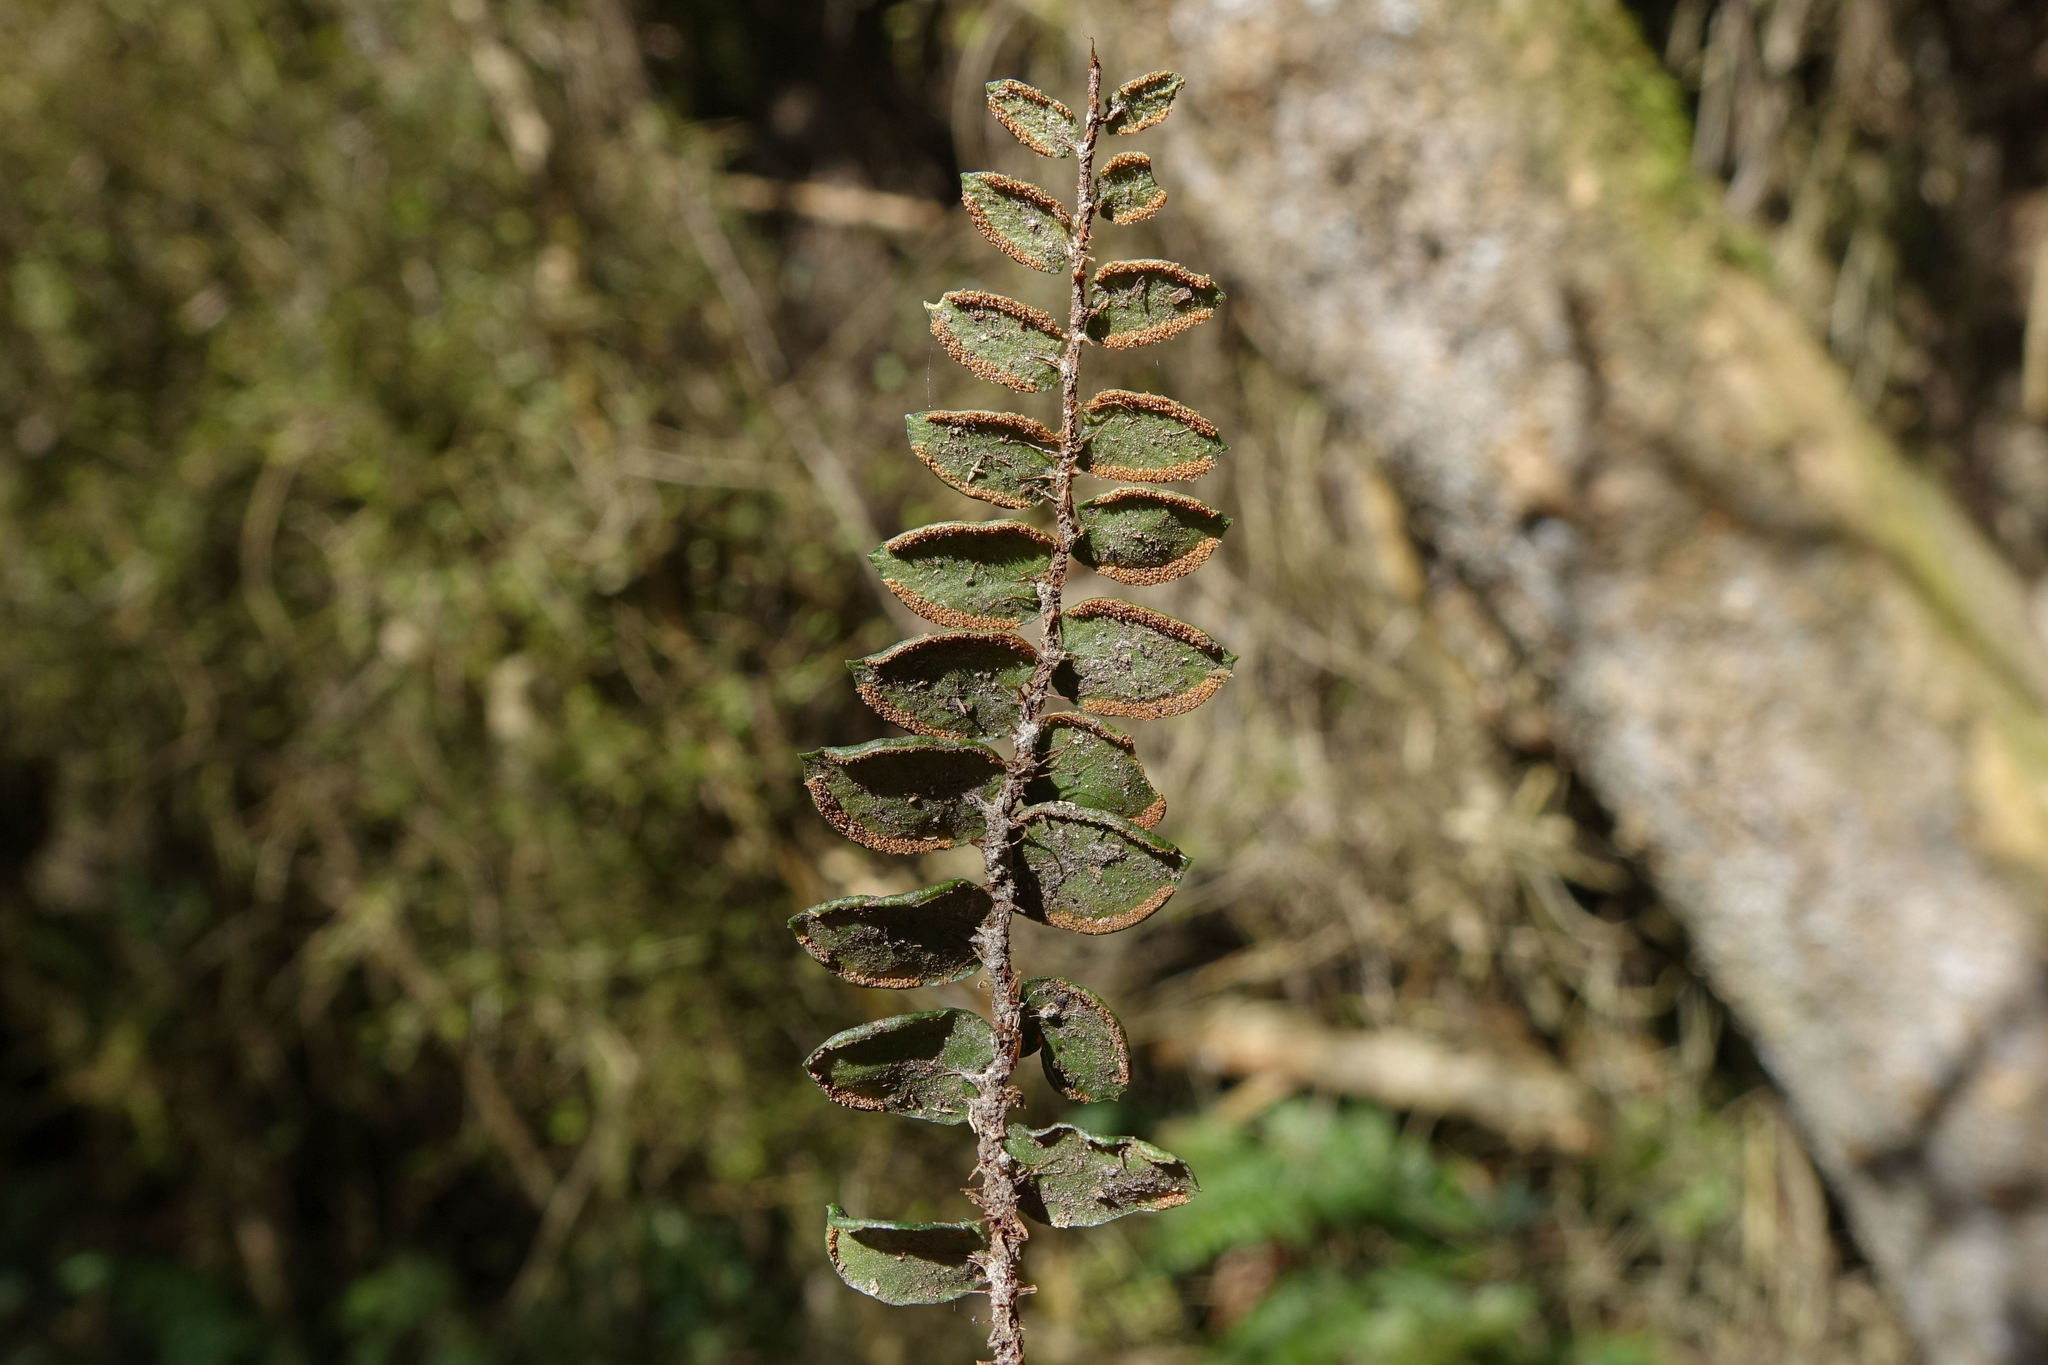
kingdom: Plantae
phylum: Tracheophyta
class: Polypodiopsida
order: Polypodiales
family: Pteridaceae
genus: Pellaea
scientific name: Pellaea rotundifolia
